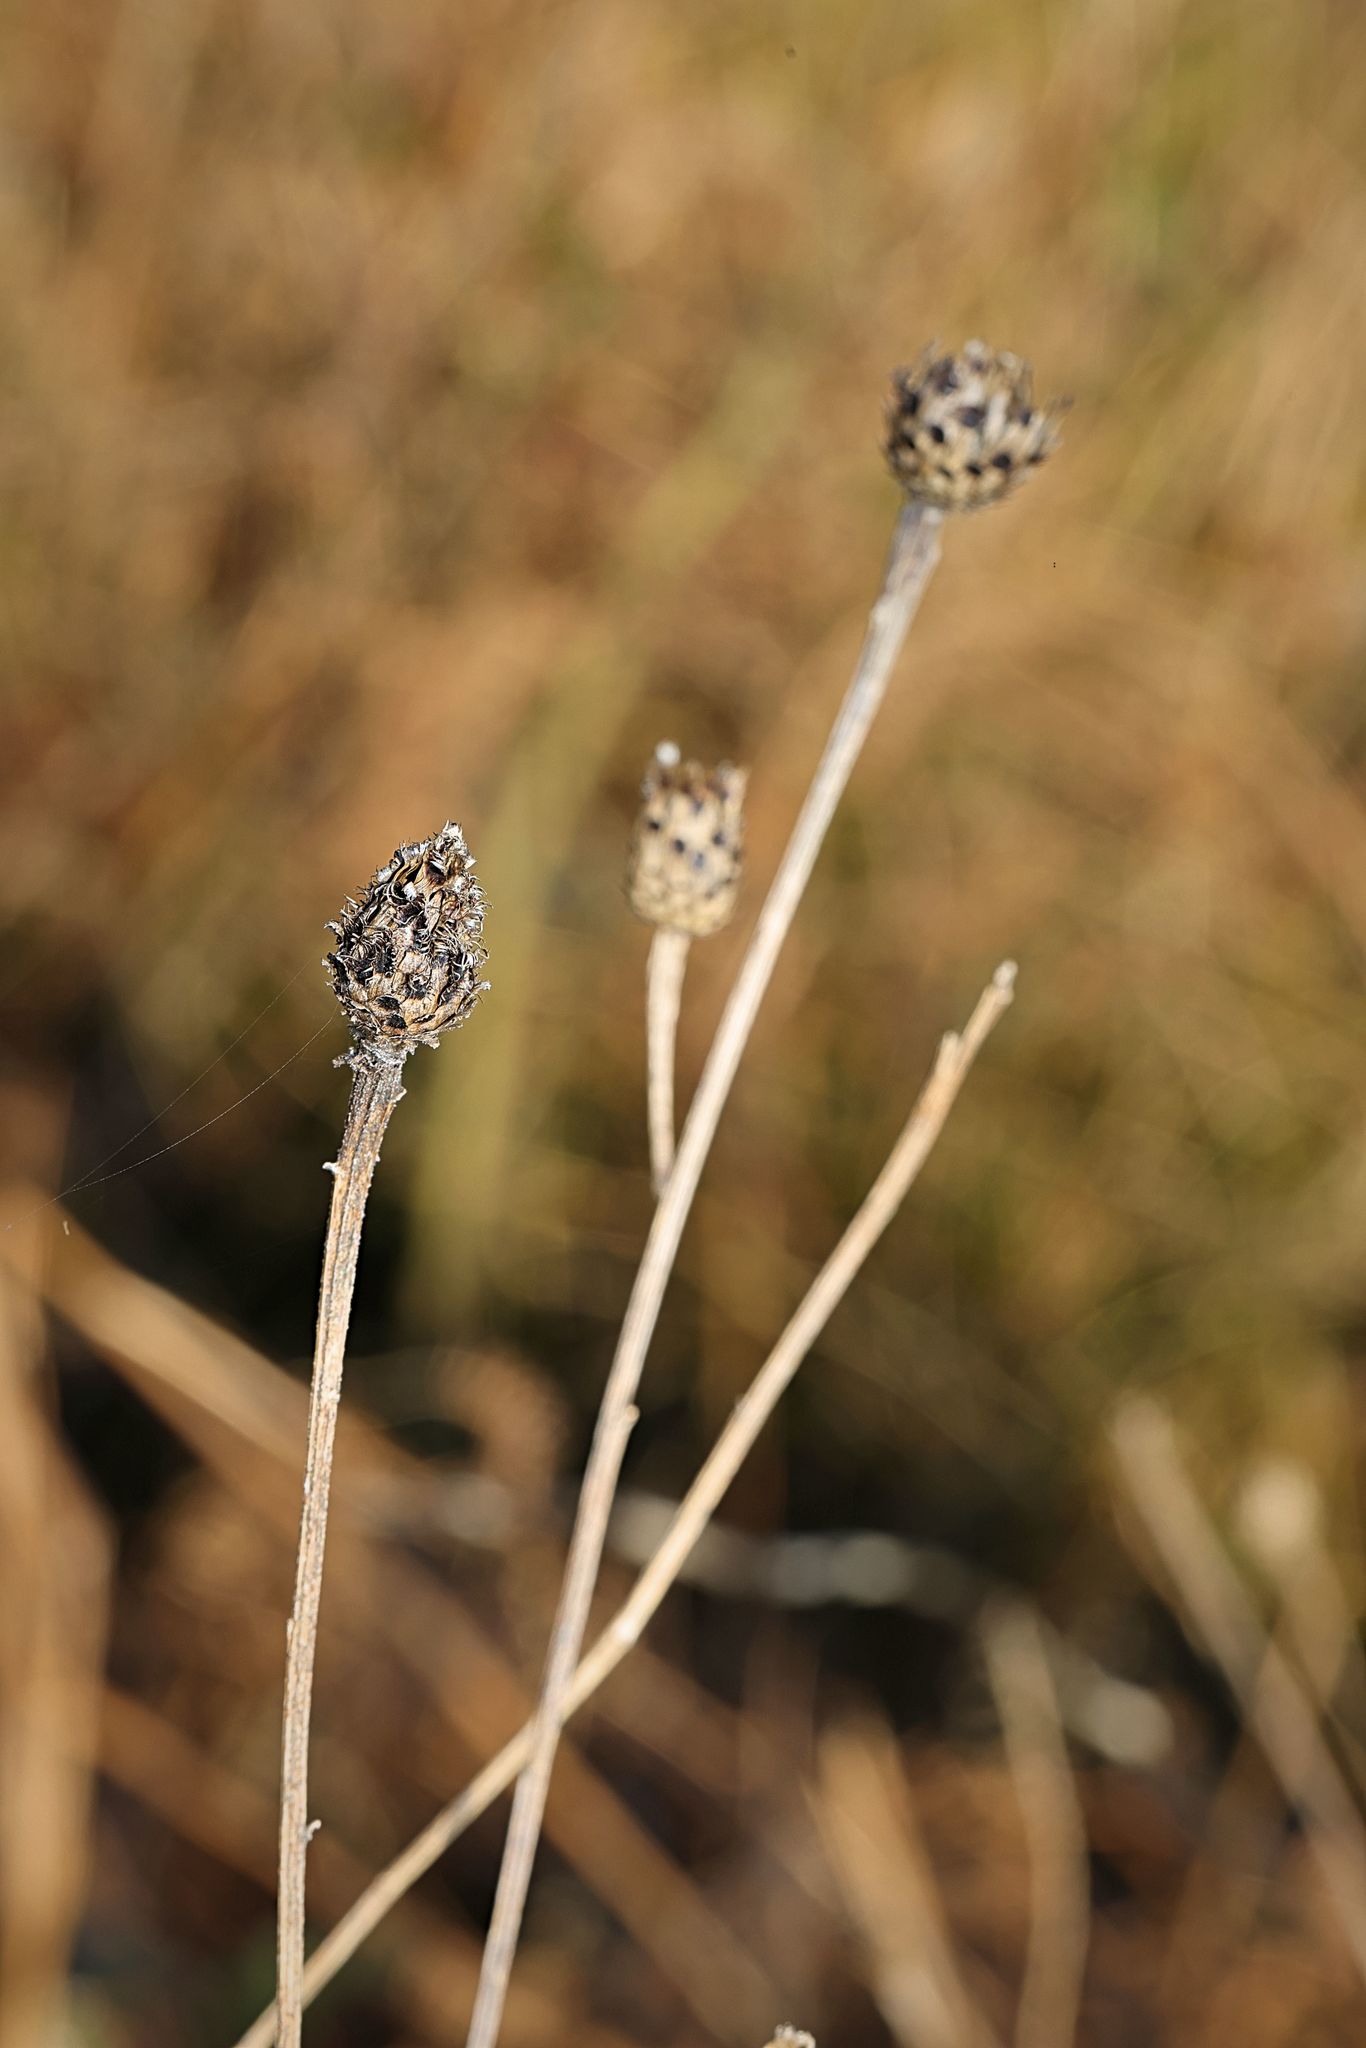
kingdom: Plantae
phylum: Tracheophyta
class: Magnoliopsida
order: Asterales
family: Asteraceae
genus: Centaurea
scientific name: Centaurea nigra
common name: Lesser knapweed
